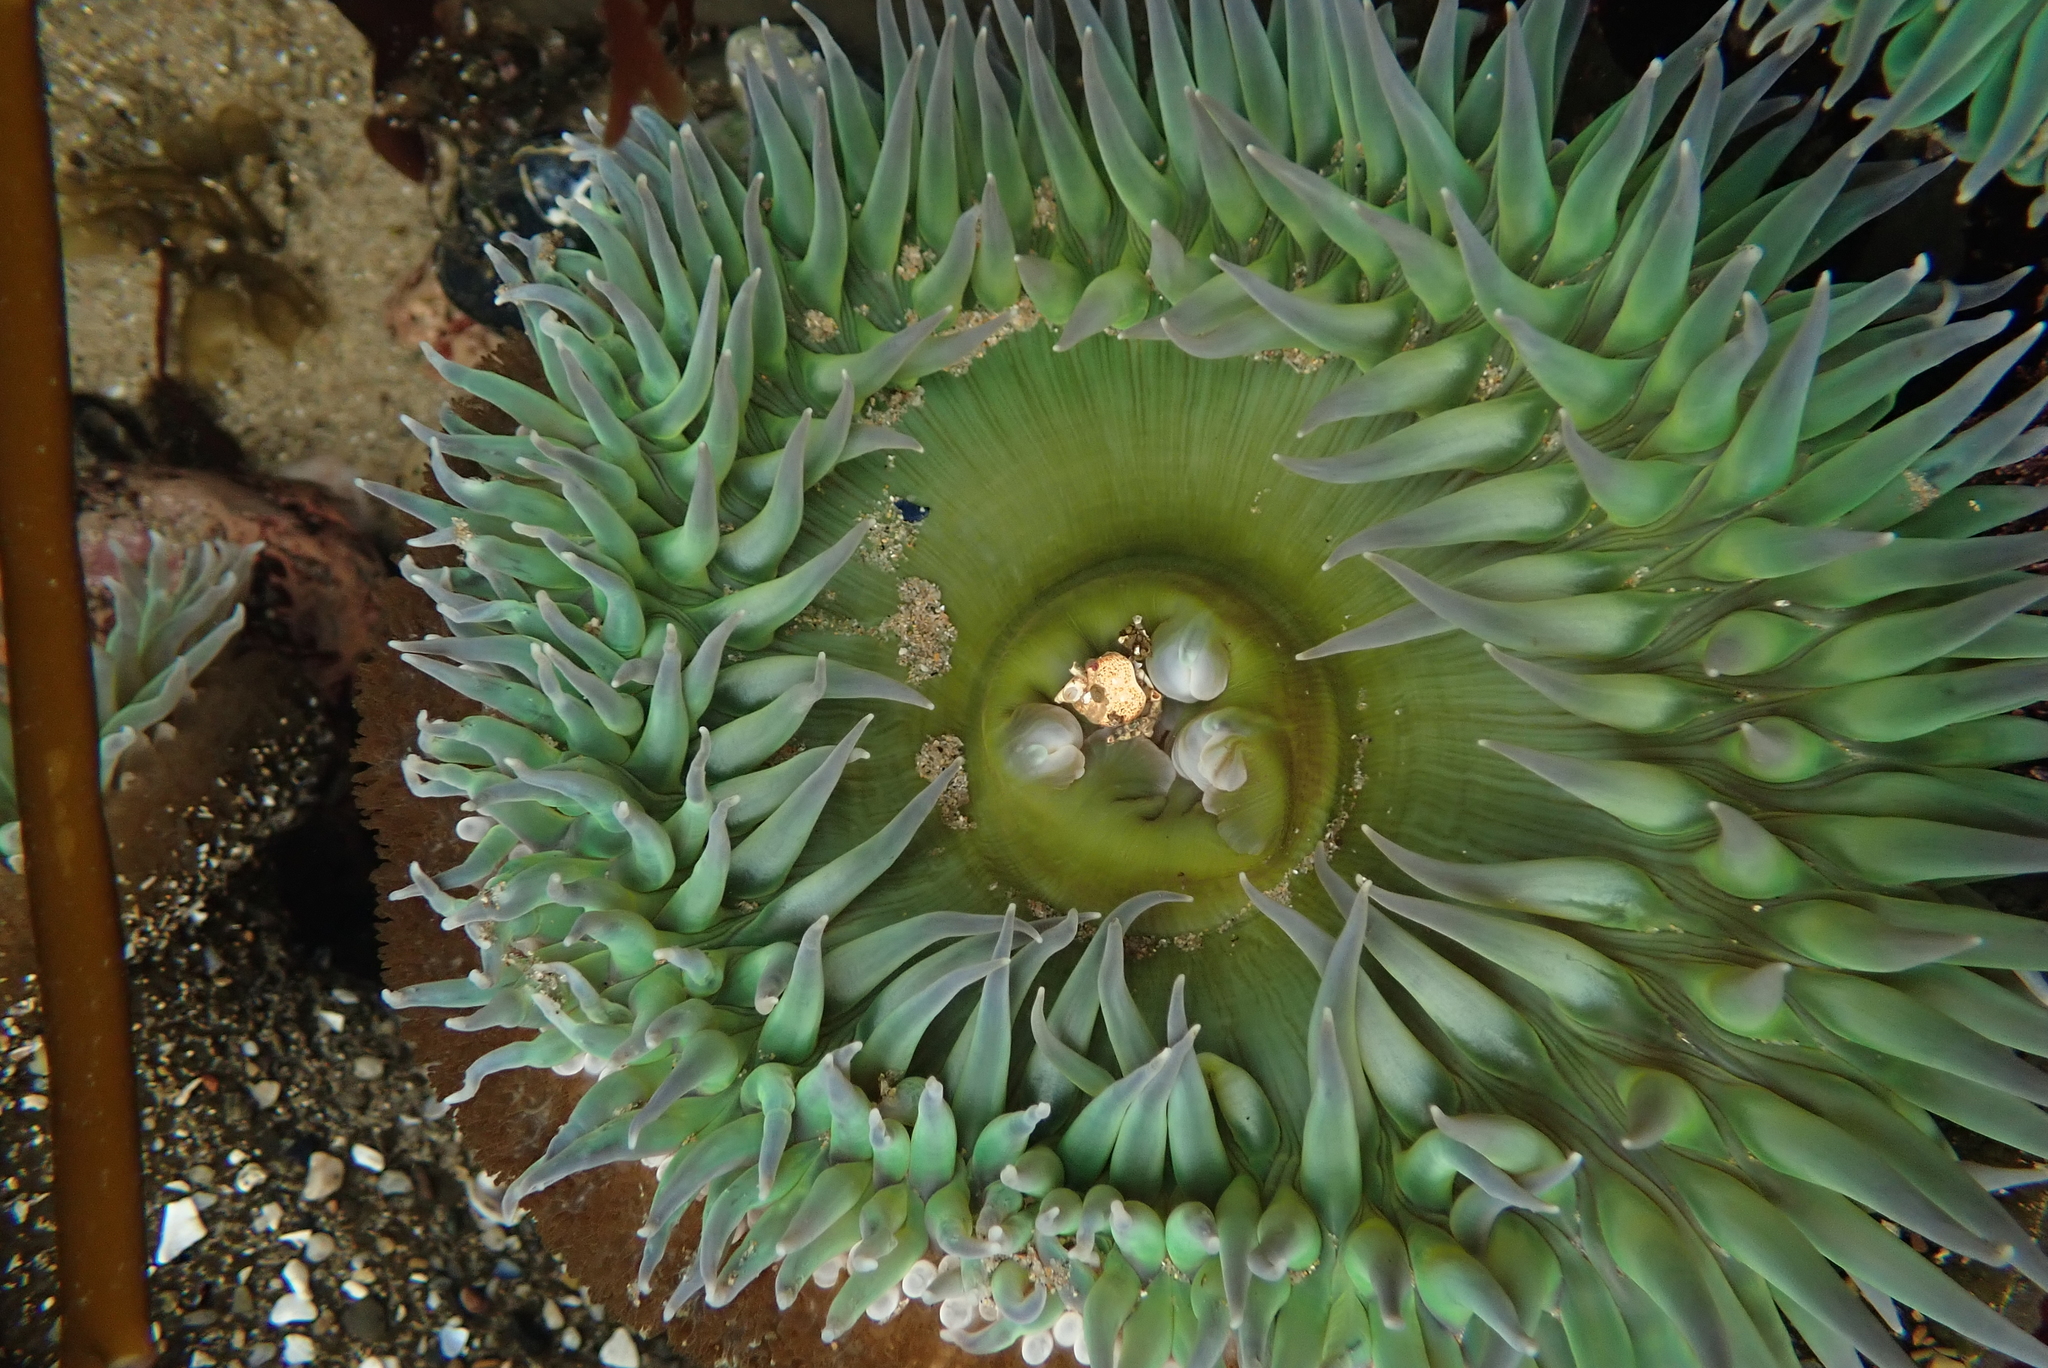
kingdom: Animalia
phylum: Cnidaria
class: Anthozoa
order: Actiniaria
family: Actiniidae
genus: Anthopleura
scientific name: Anthopleura xanthogrammica
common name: Giant green anemone
